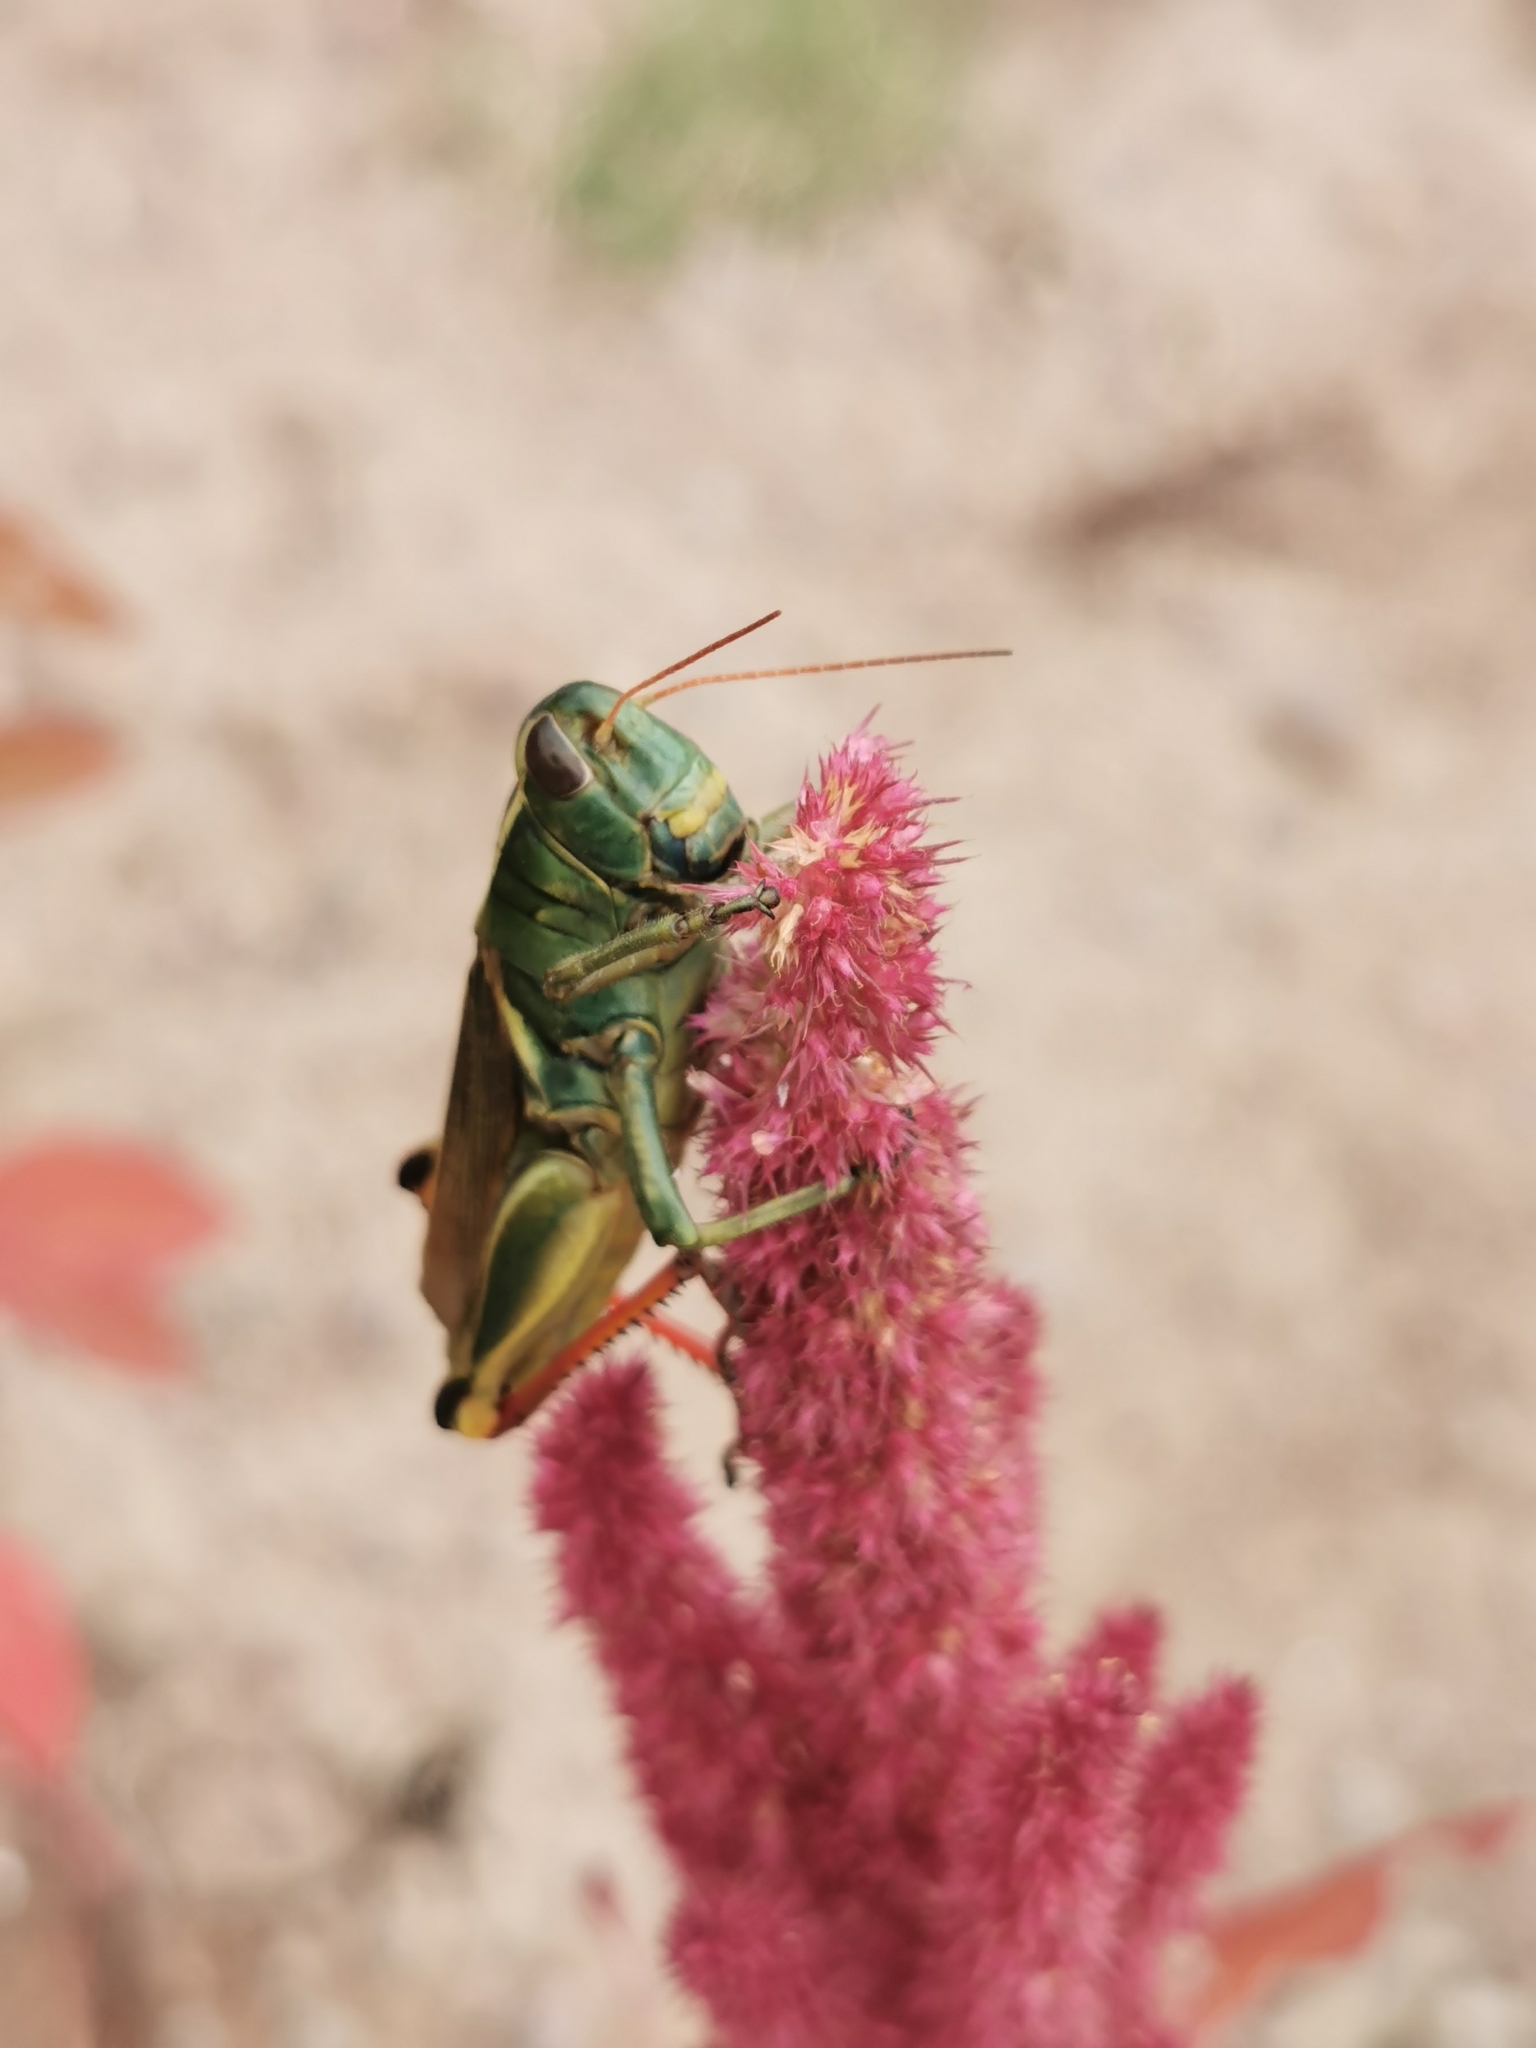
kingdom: Animalia
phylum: Arthropoda
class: Insecta
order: Orthoptera
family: Acrididae
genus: Melanoplus
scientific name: Melanoplus thomasi
